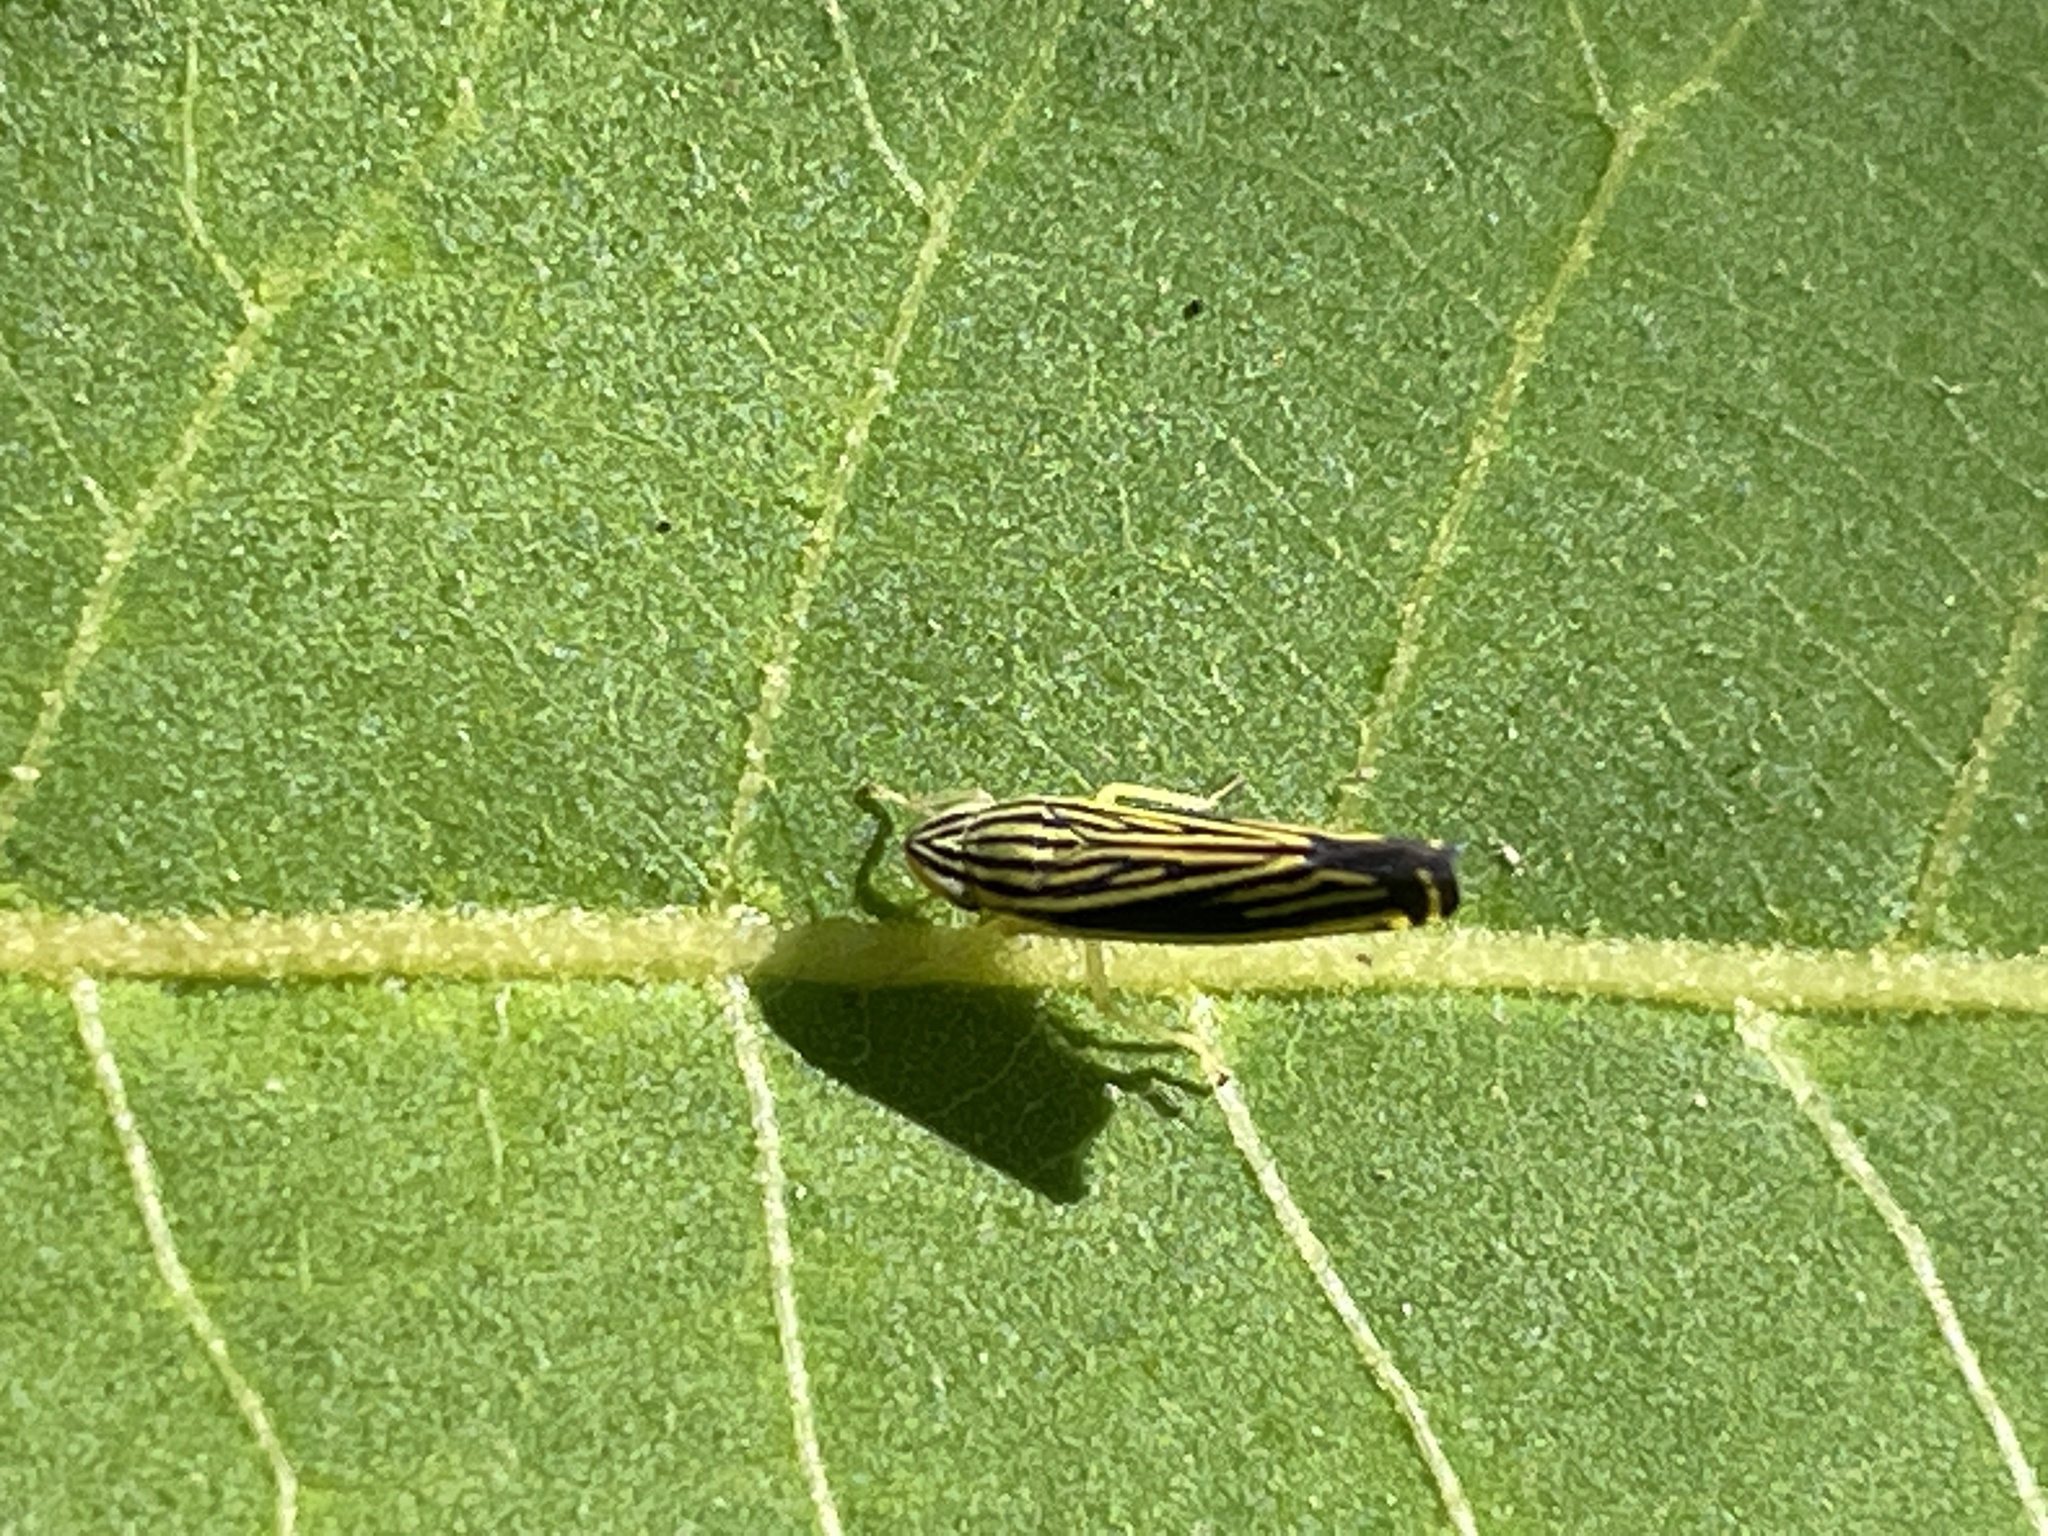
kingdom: Animalia
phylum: Arthropoda
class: Insecta
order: Hemiptera
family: Cicadellidae
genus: Sibovia
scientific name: Sibovia occatoria
